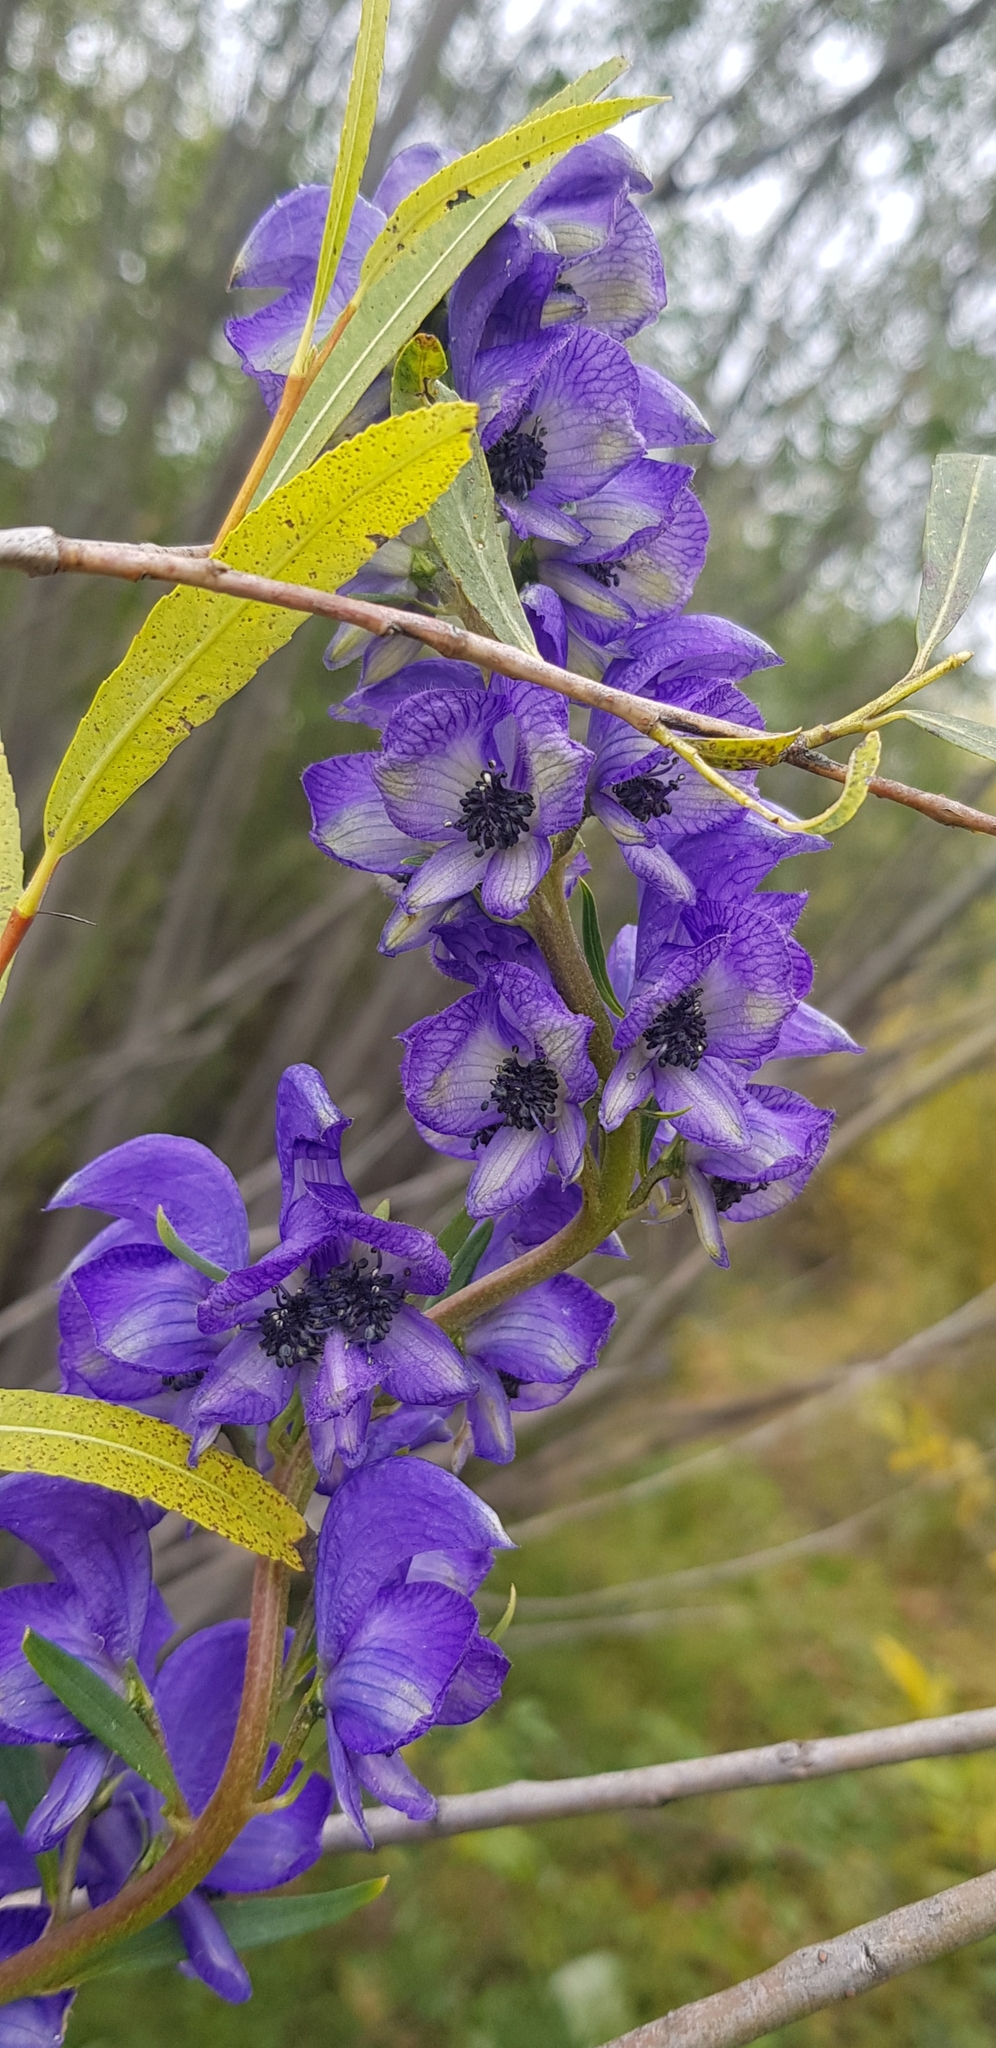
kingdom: Plantae
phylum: Tracheophyta
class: Magnoliopsida
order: Ranunculales
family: Ranunculaceae
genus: Aconitum
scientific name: Aconitum glandulosum
